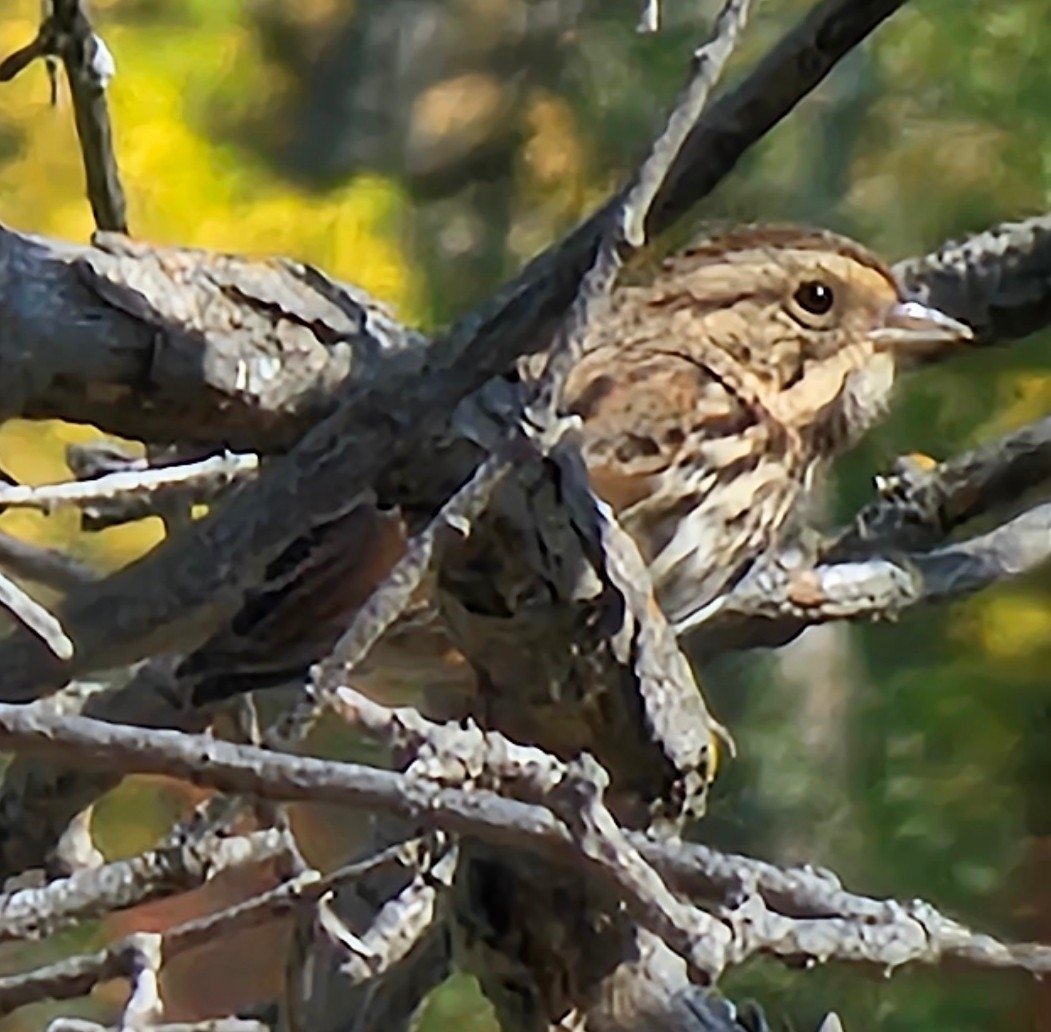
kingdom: Animalia
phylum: Chordata
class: Aves
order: Passeriformes
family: Passerellidae
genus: Melospiza
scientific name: Melospiza melodia
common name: Song sparrow
